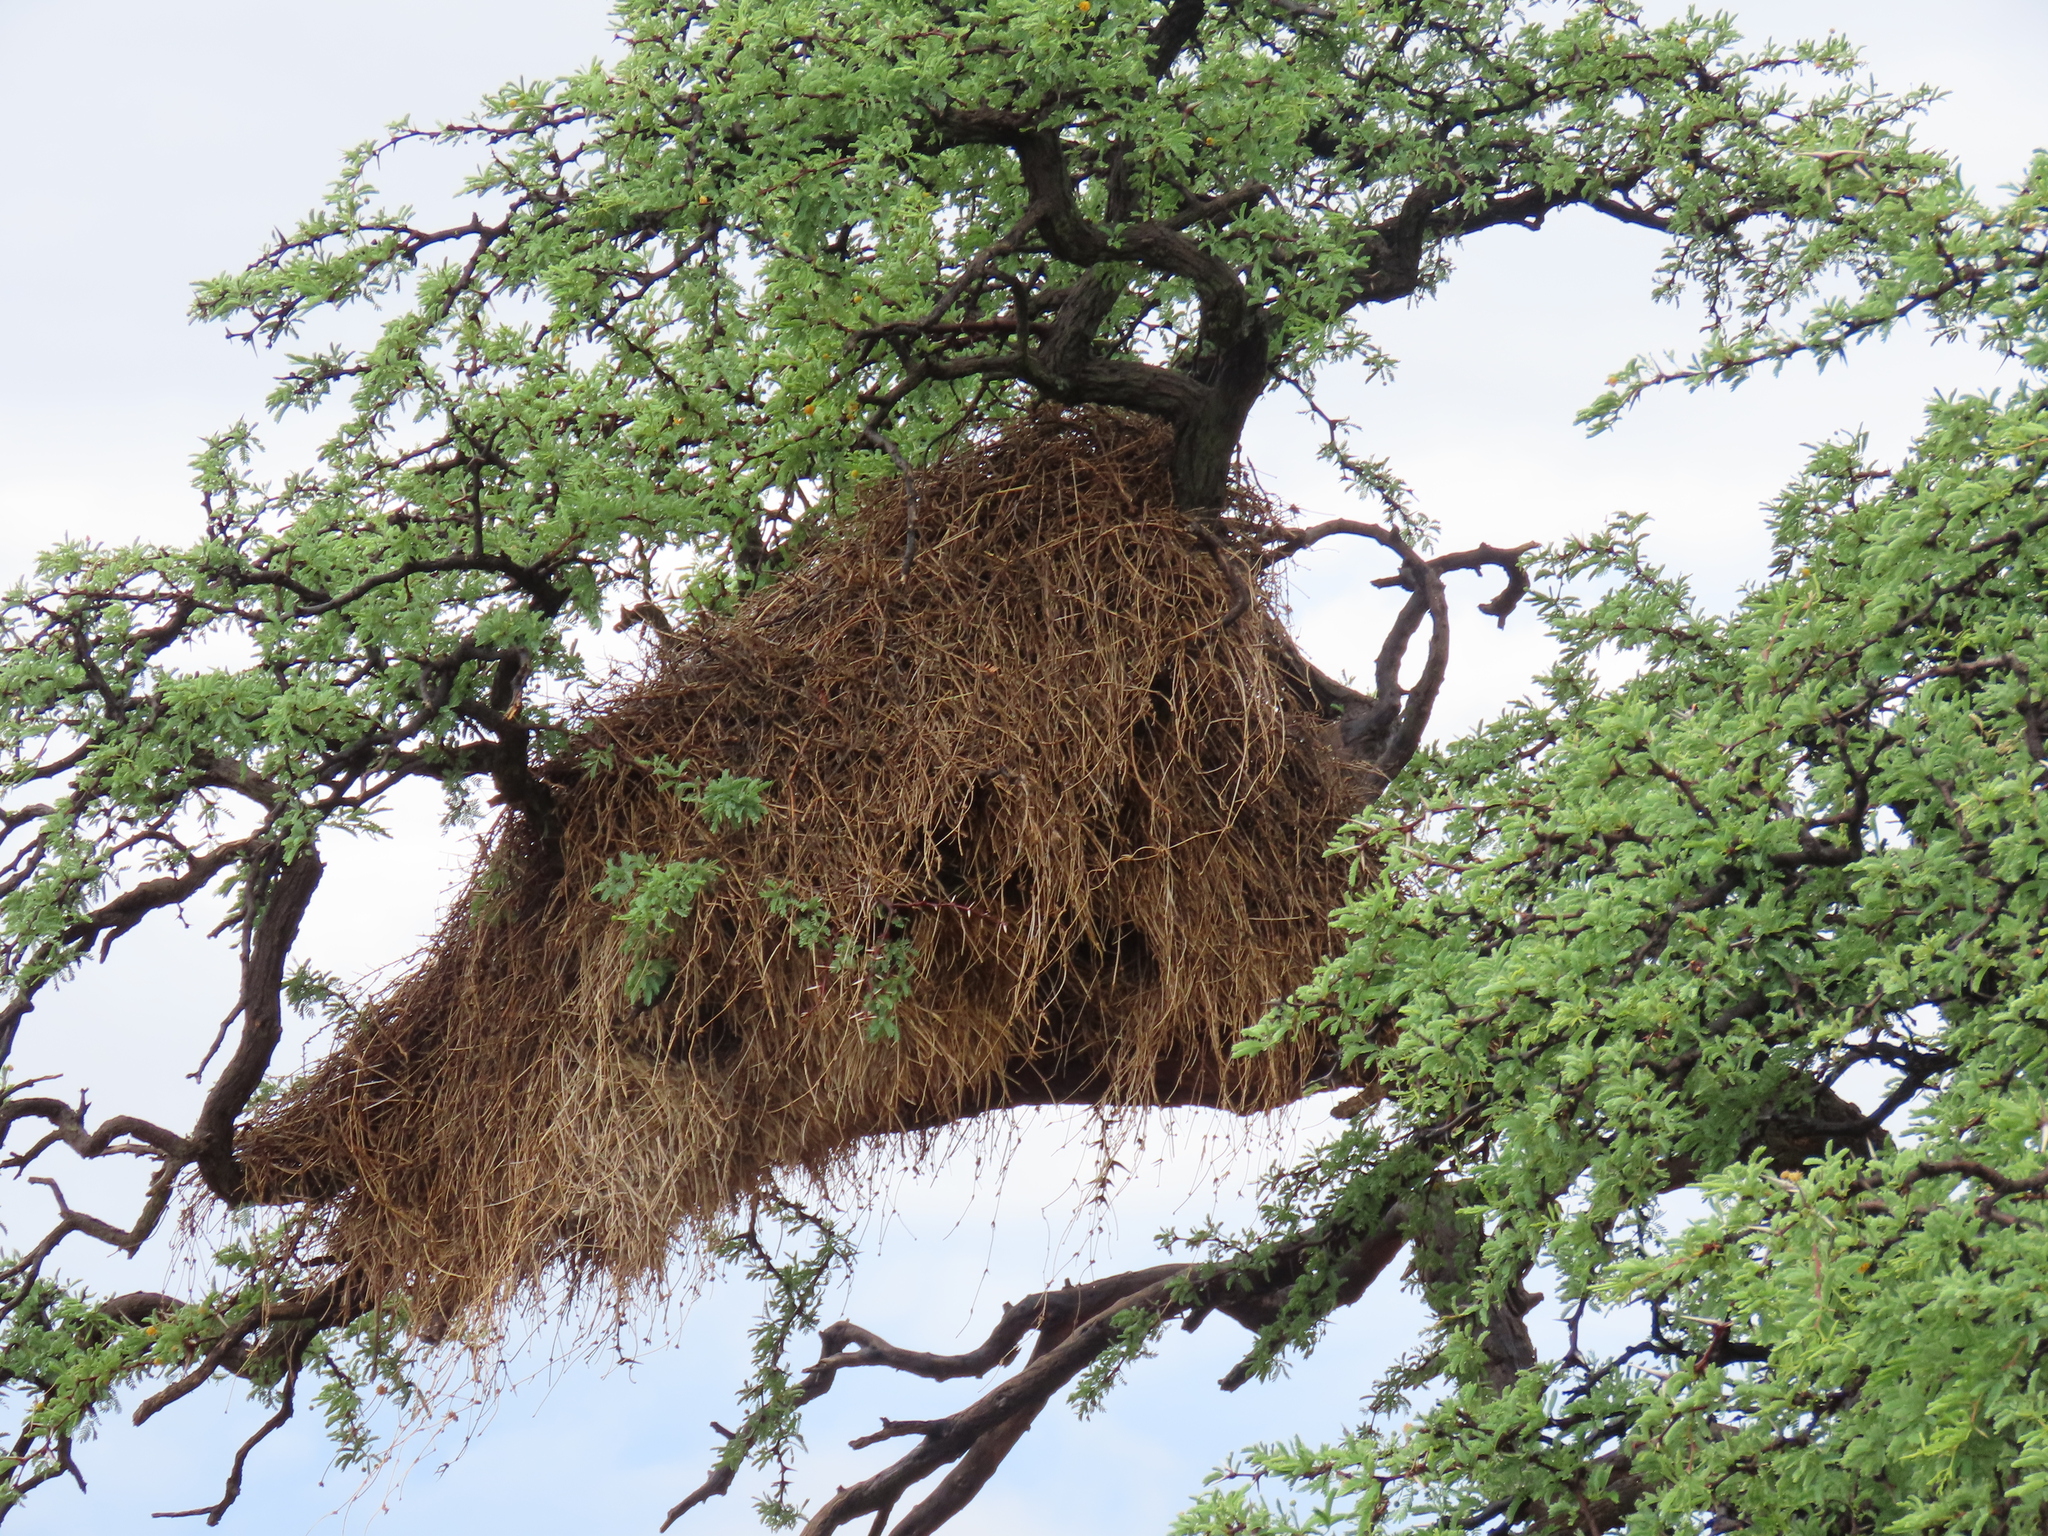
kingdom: Animalia
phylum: Chordata
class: Aves
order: Passeriformes
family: Passeridae
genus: Philetairus
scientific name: Philetairus socius
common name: Sociable weaver
